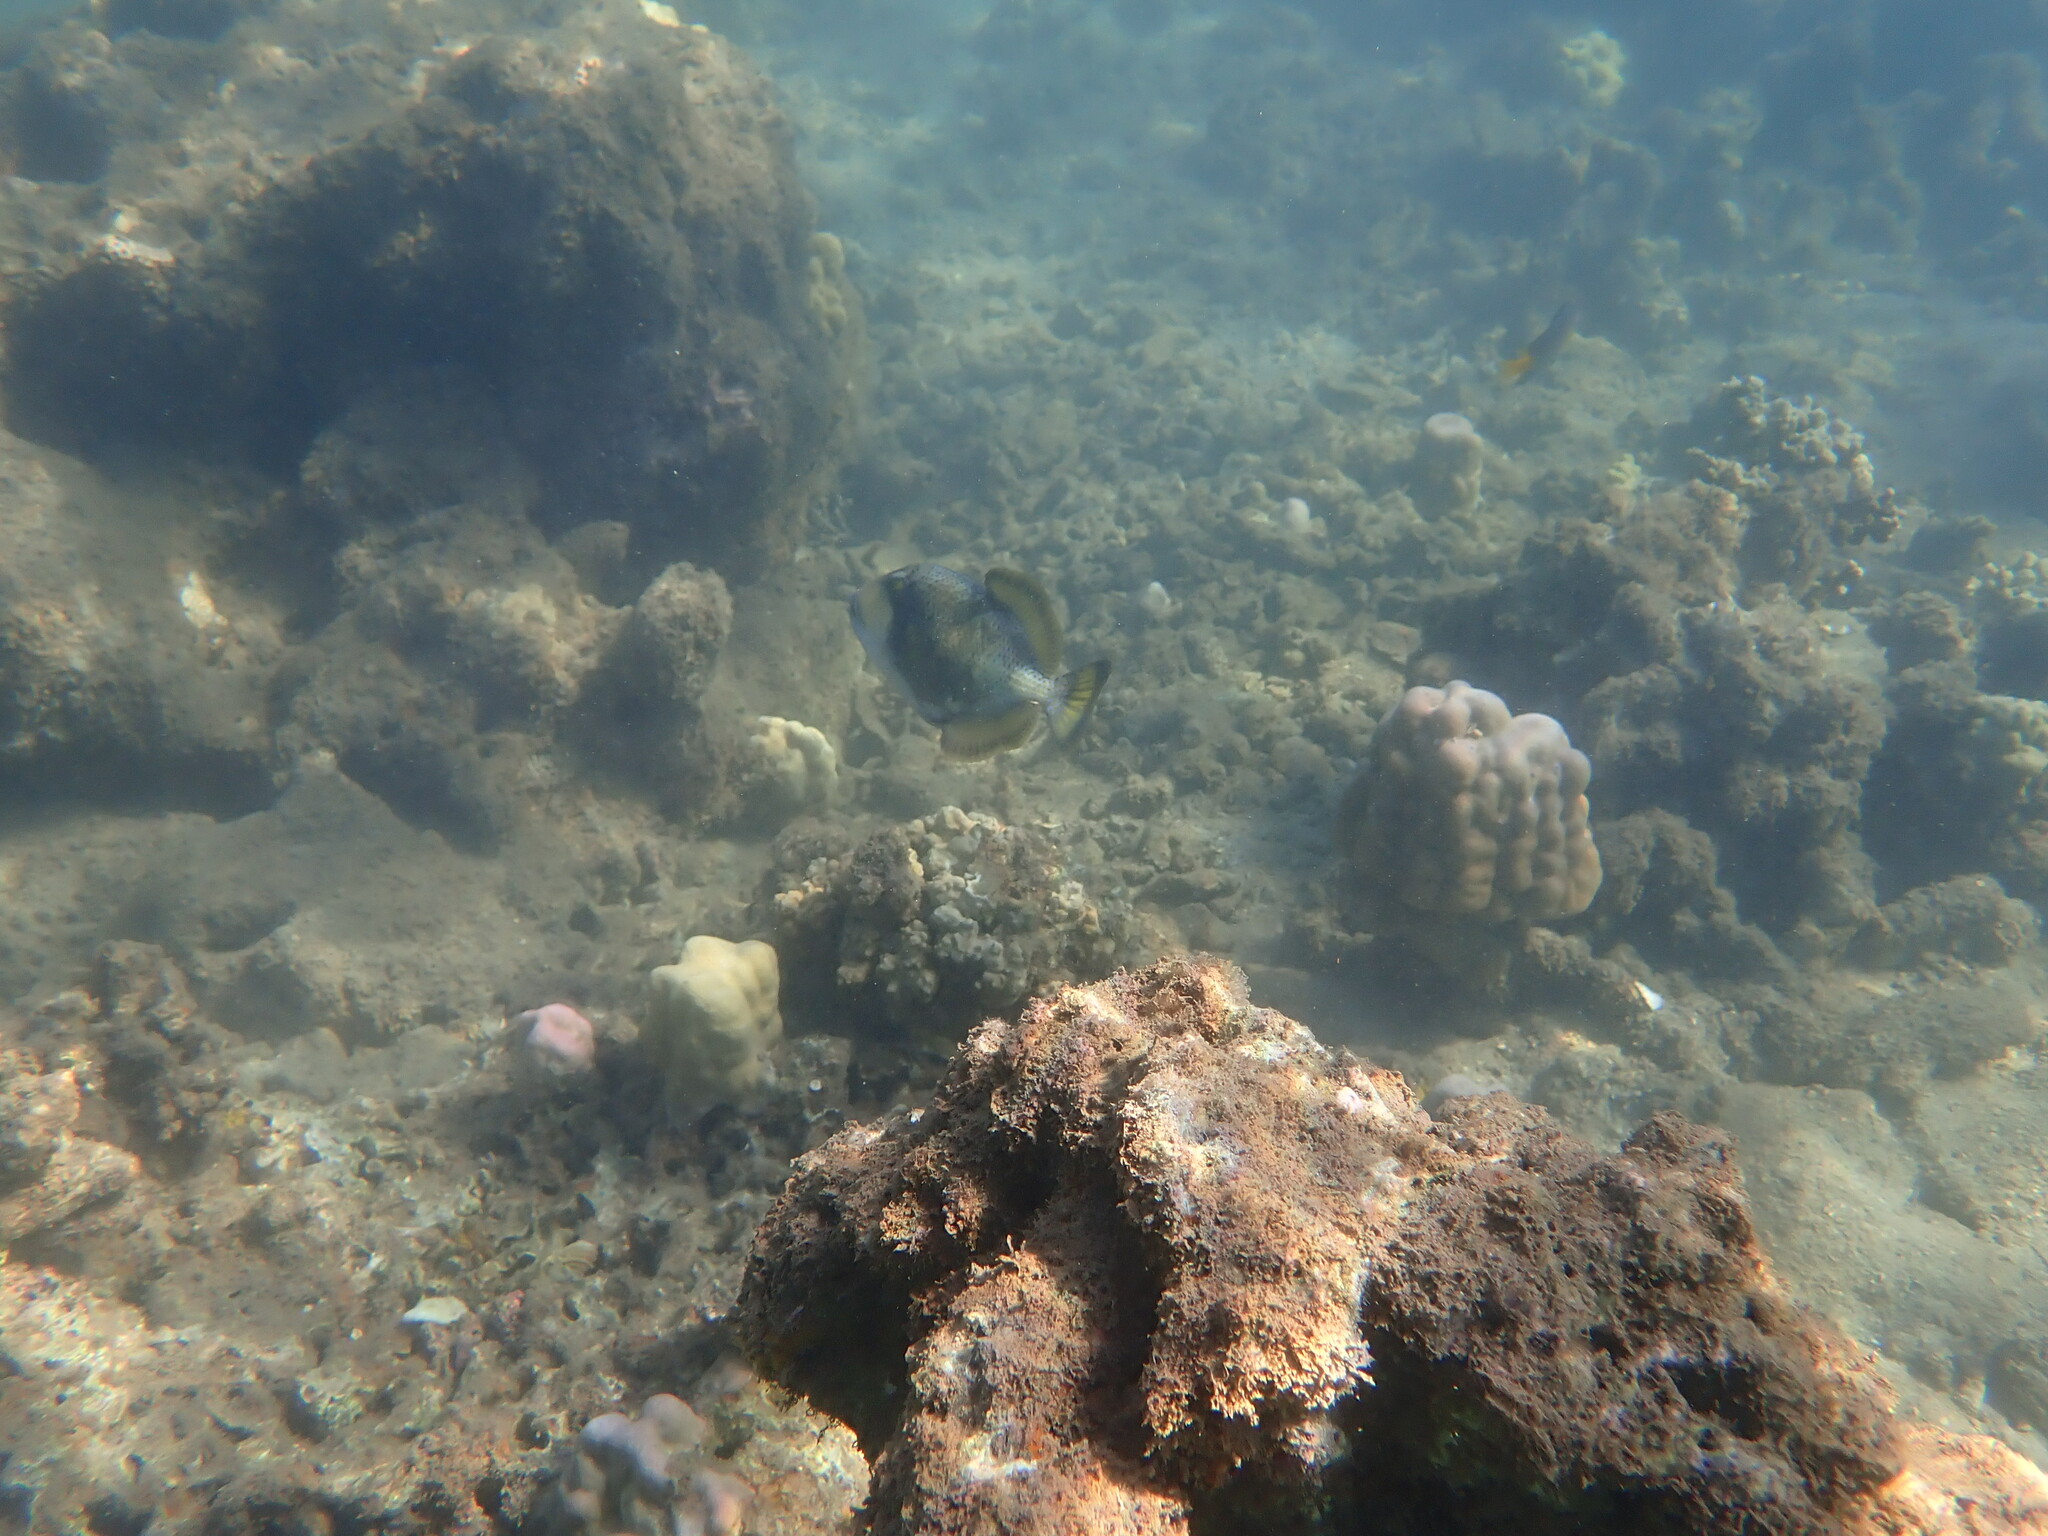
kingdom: Animalia
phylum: Chordata
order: Tetraodontiformes
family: Balistidae
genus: Balistoides
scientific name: Balistoides viridescens
